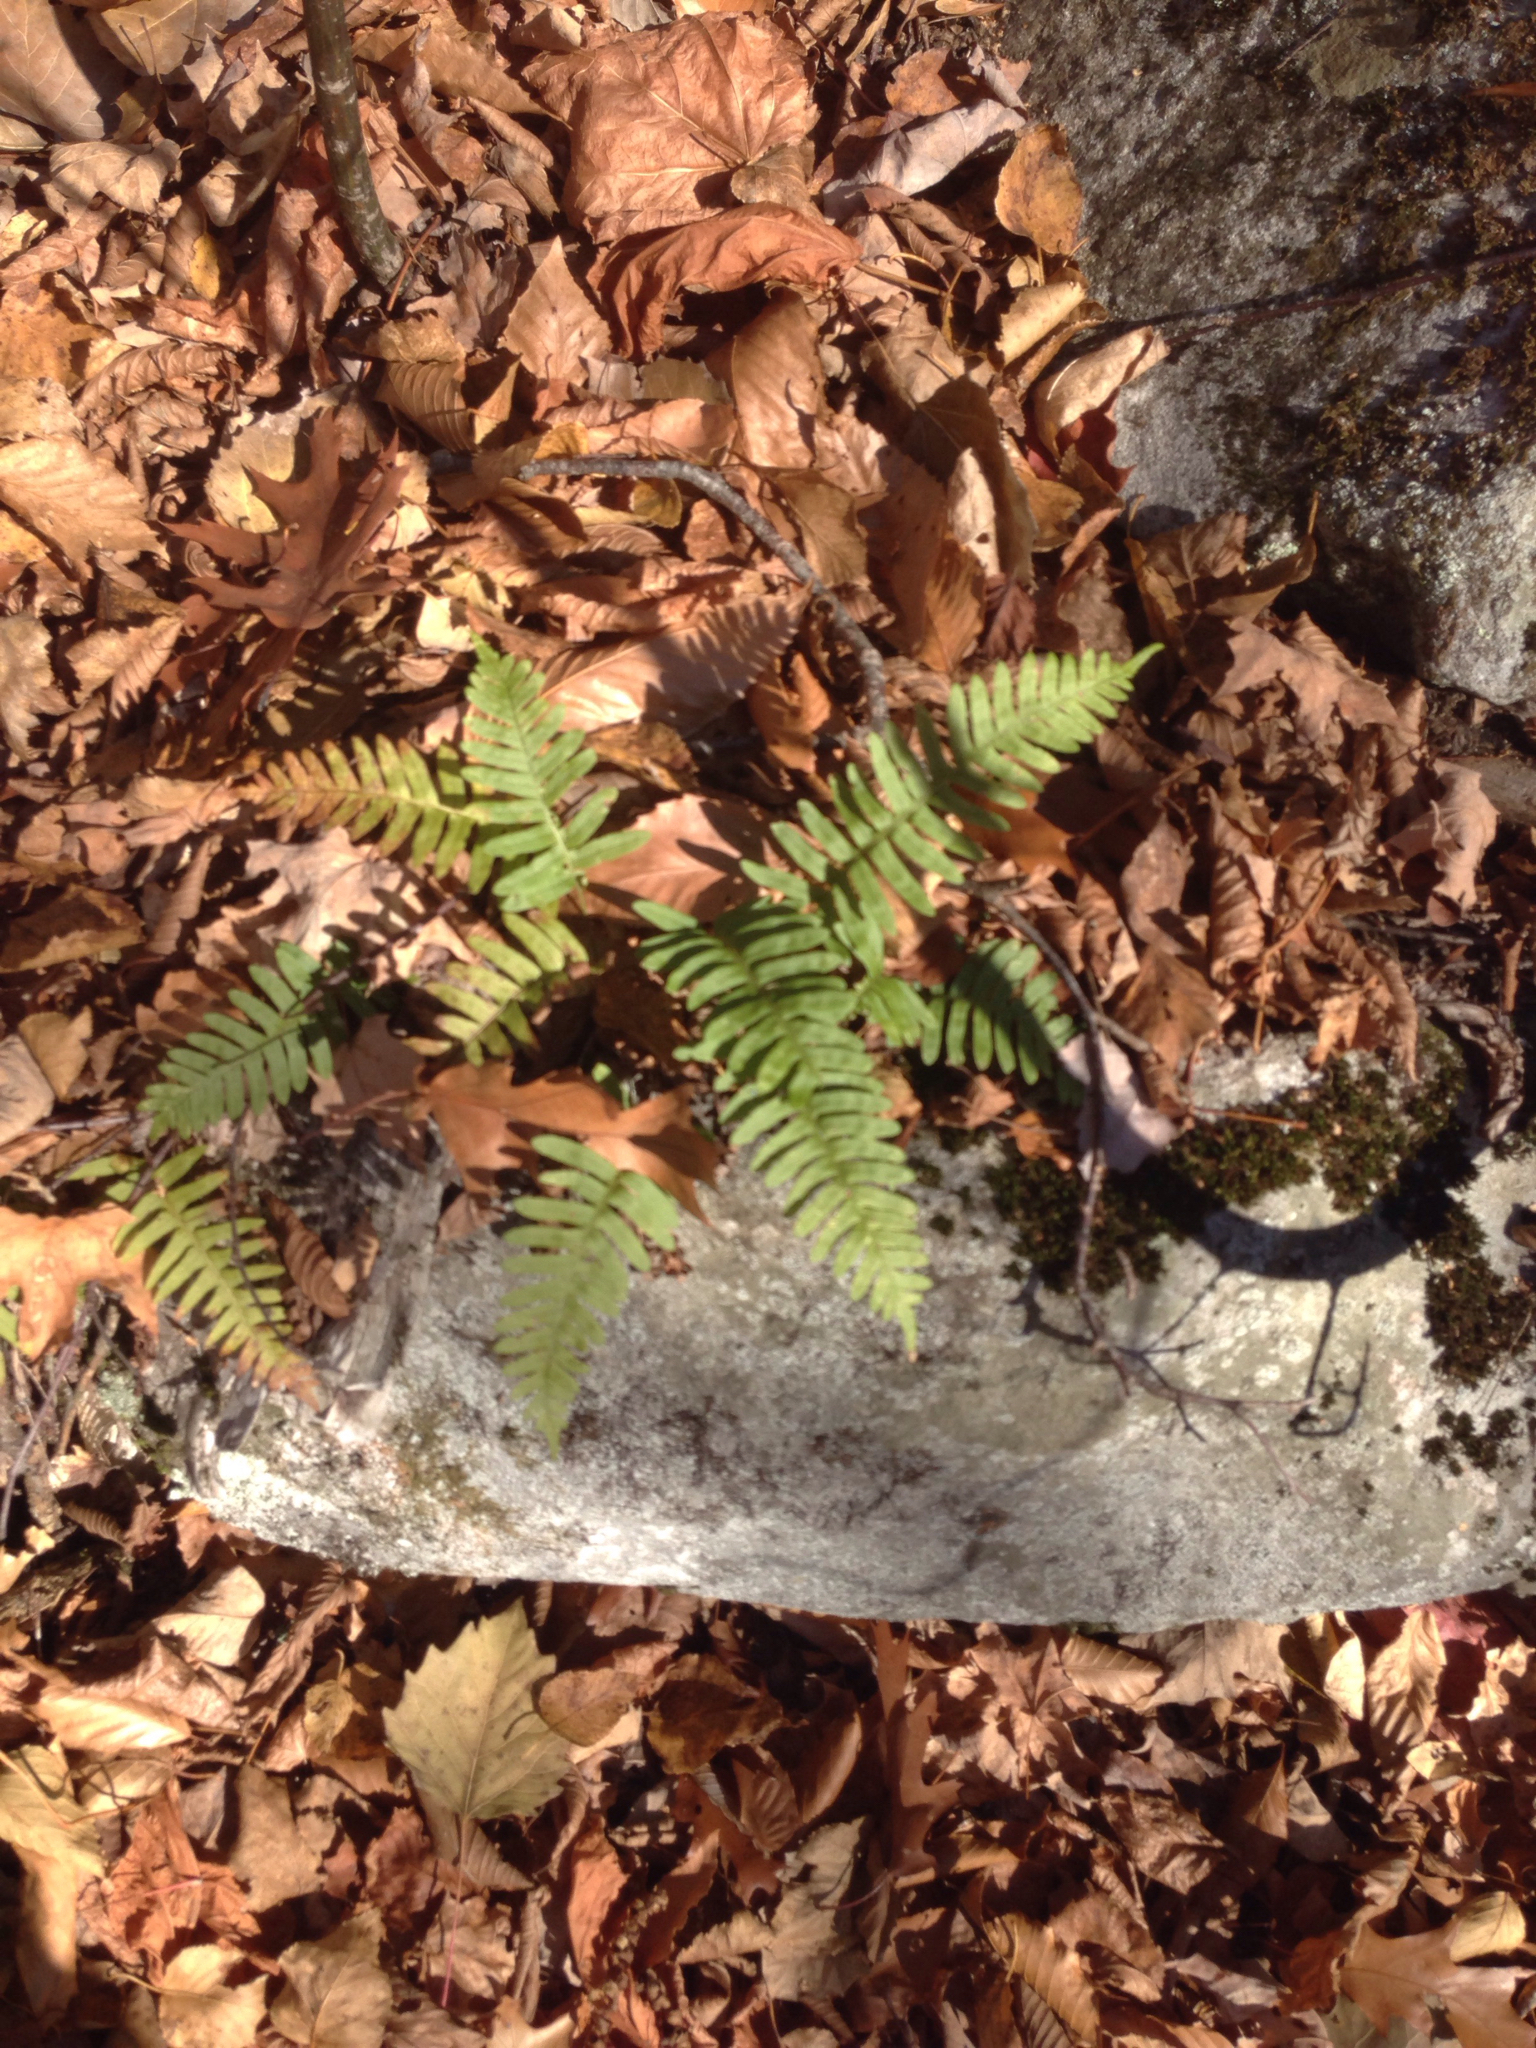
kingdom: Plantae
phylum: Tracheophyta
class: Polypodiopsida
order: Polypodiales
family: Polypodiaceae
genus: Polypodium
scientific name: Polypodium virginianum
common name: American wall fern
